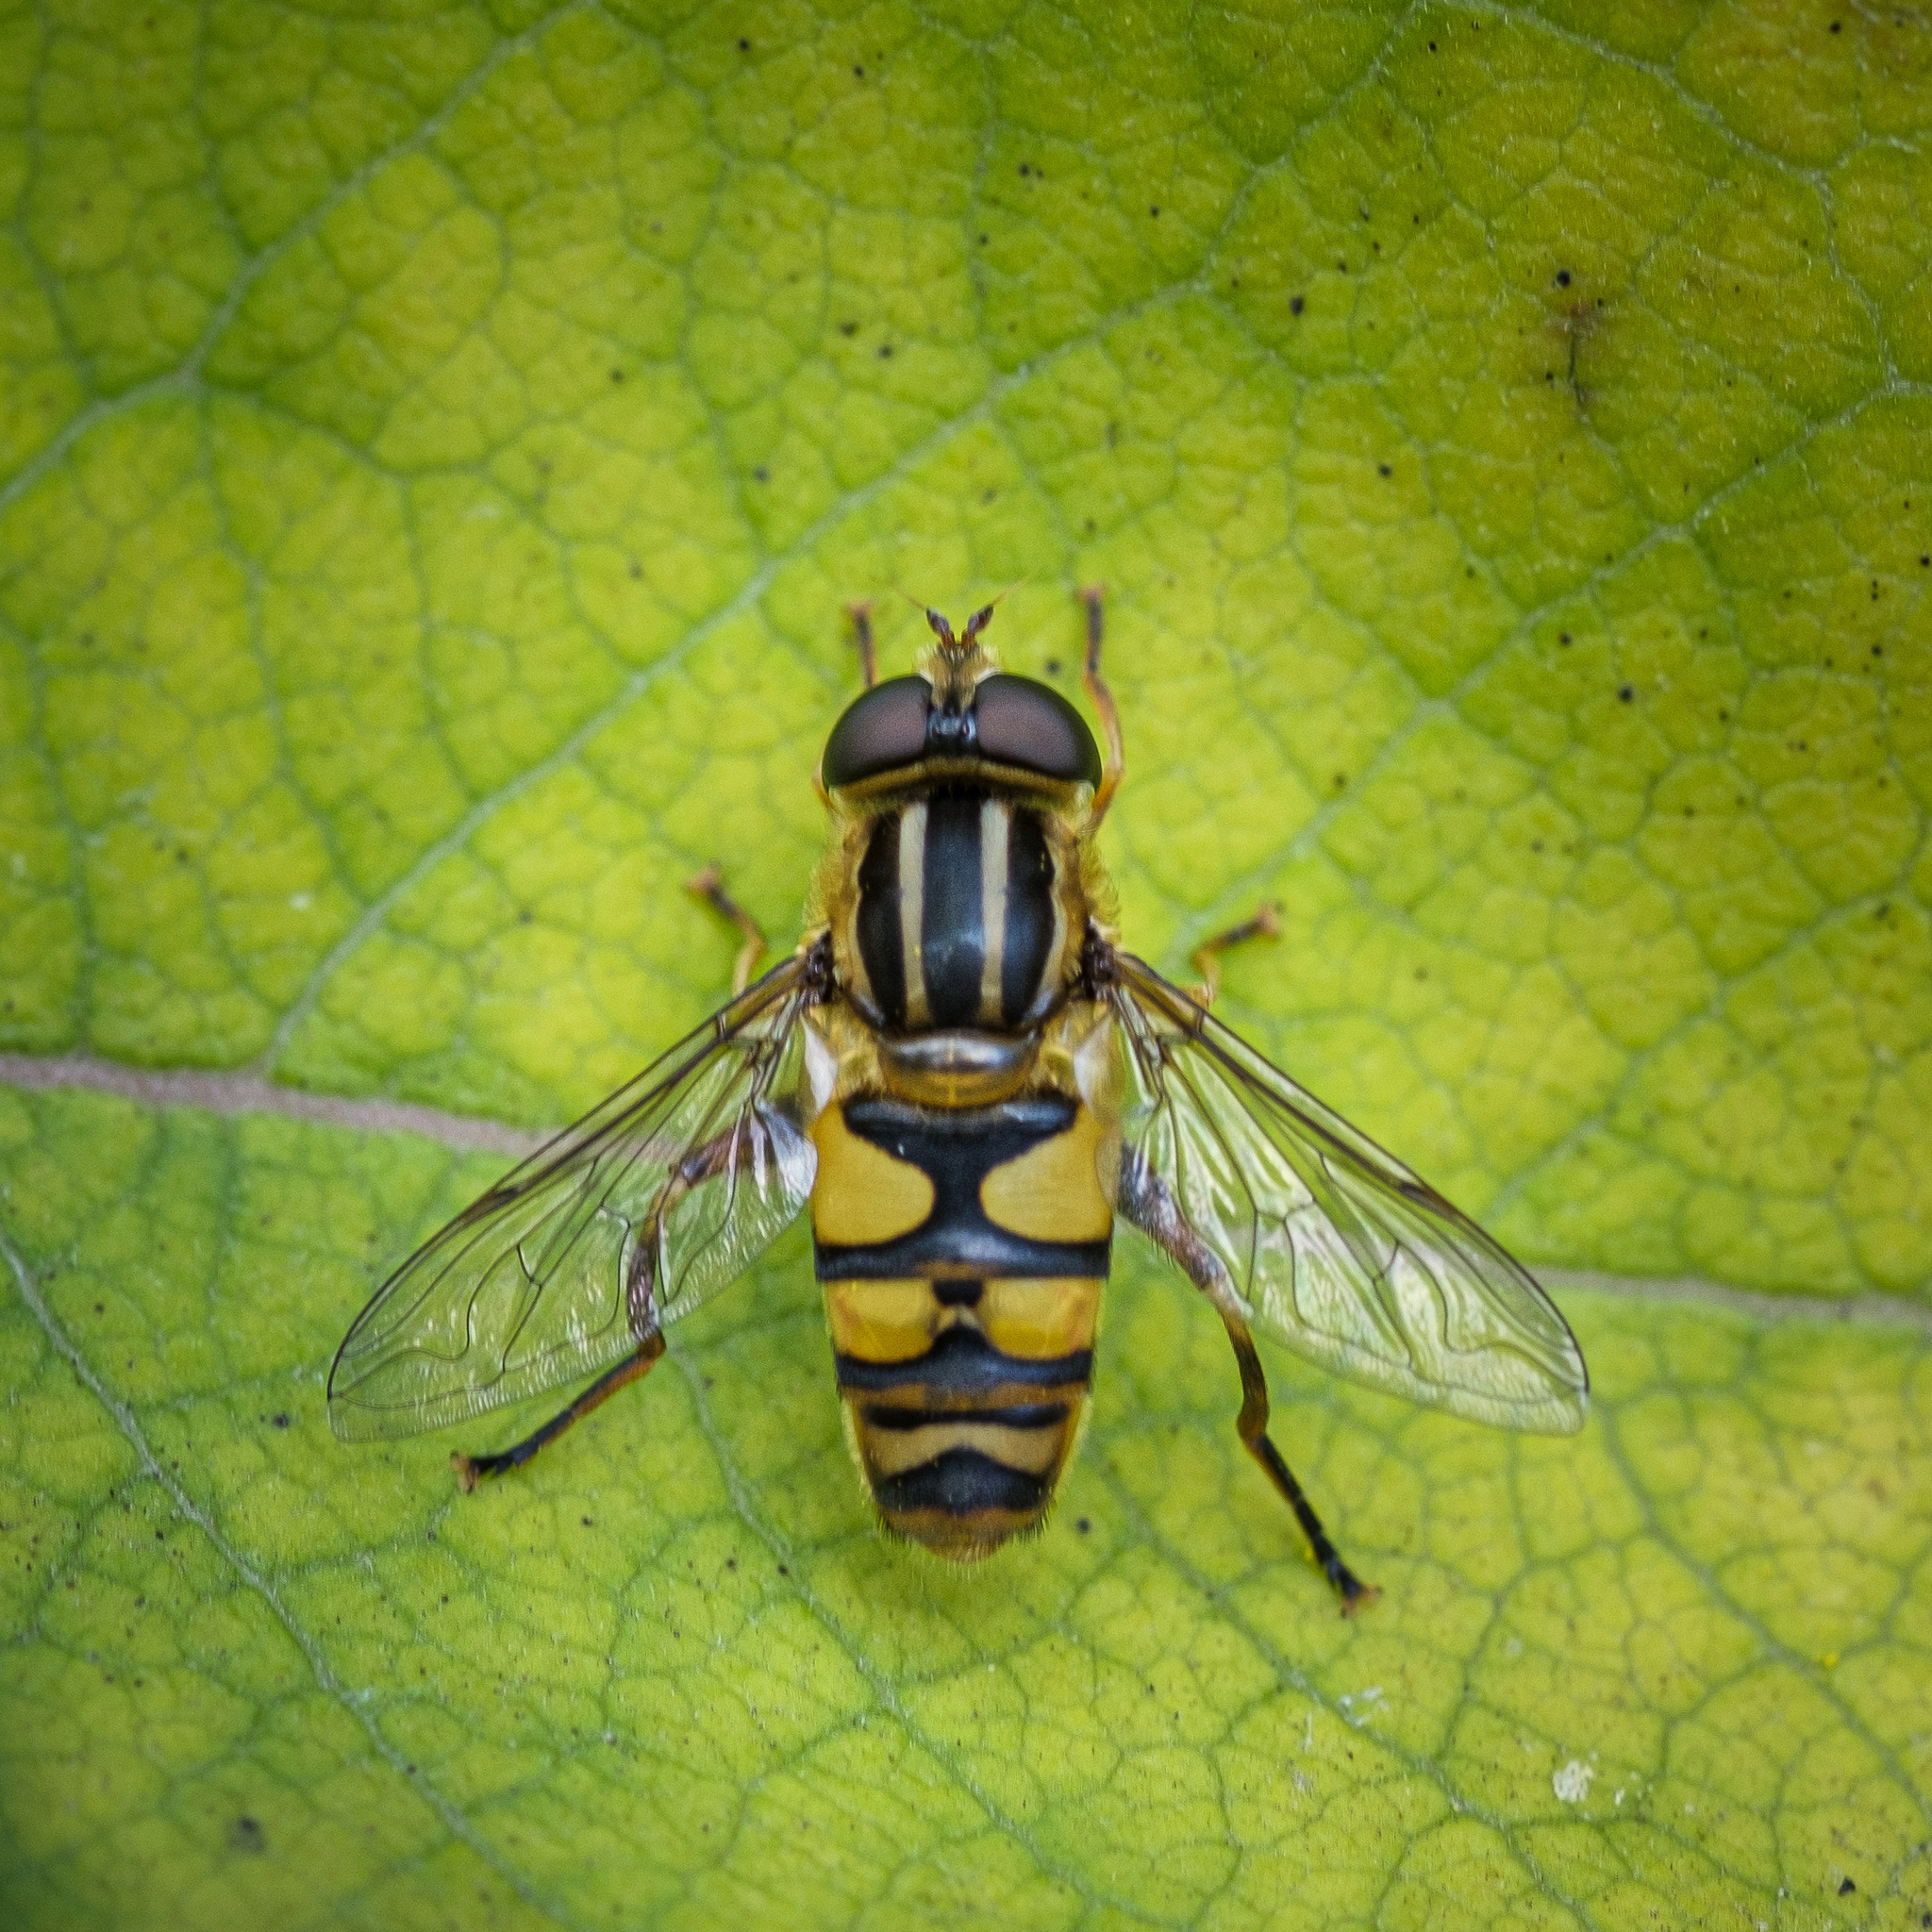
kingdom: Animalia
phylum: Arthropoda
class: Insecta
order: Diptera
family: Syrphidae
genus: Helophilus
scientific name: Helophilus fasciatus
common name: Narrow-headed marsh fly
